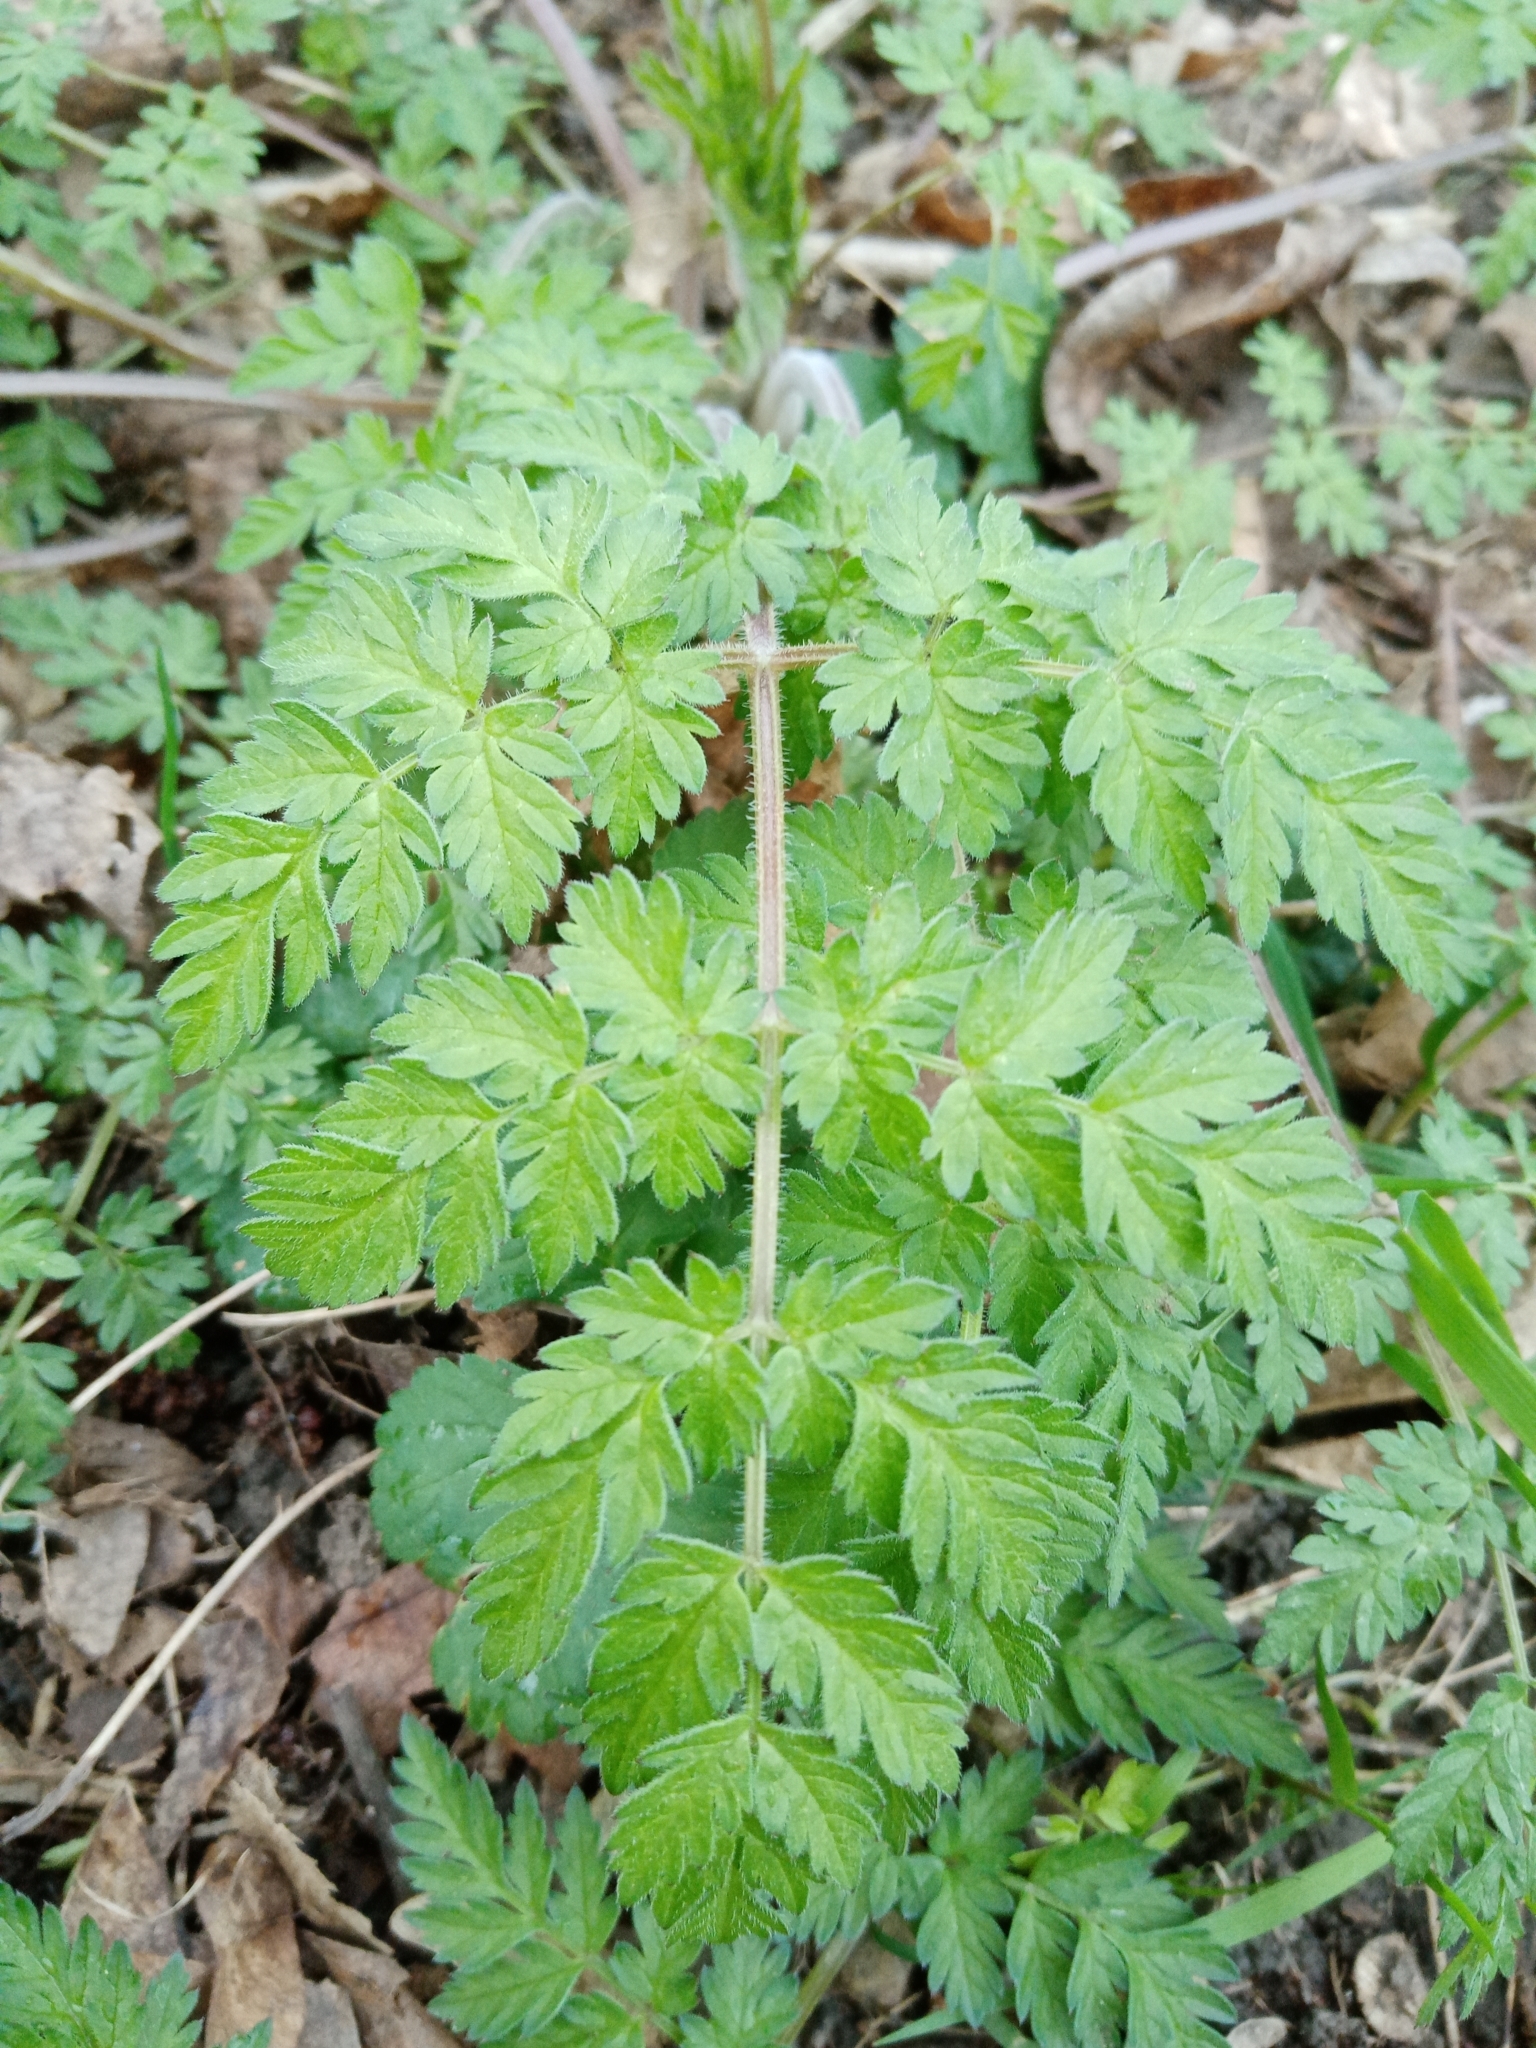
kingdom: Plantae
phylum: Tracheophyta
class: Magnoliopsida
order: Apiales
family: Apiaceae
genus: Myrrhis
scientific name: Myrrhis odorata
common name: Sweet cicely
